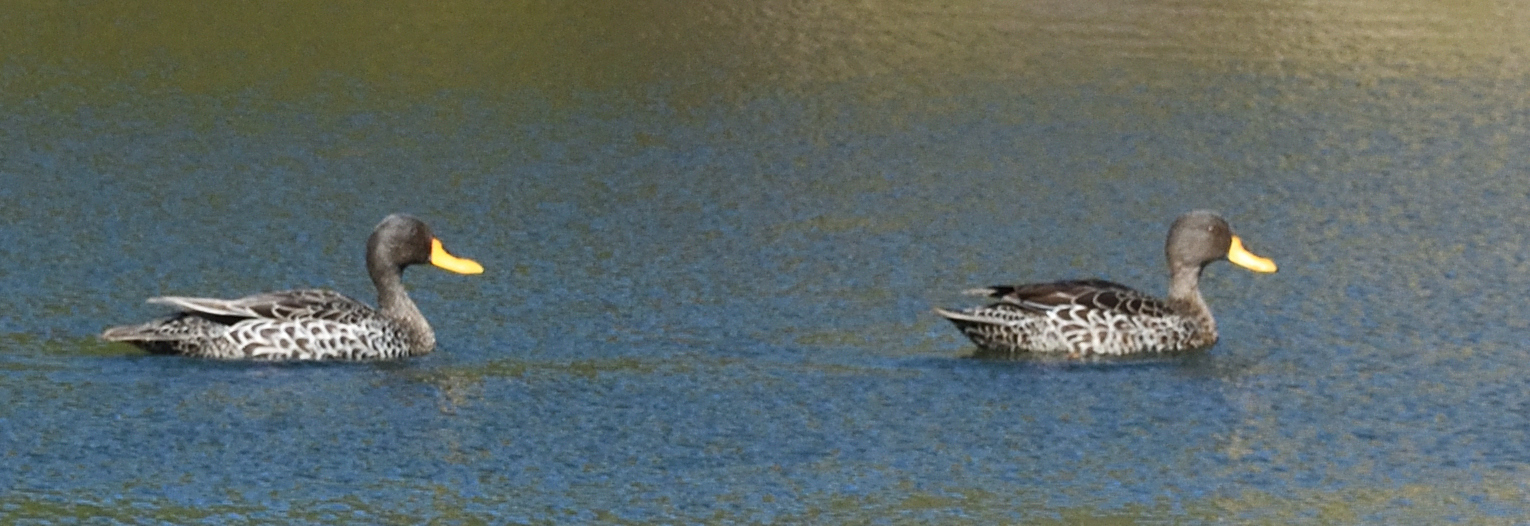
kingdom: Animalia
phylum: Chordata
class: Aves
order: Anseriformes
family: Anatidae
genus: Anas
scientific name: Anas undulata
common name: Yellow-billed duck
